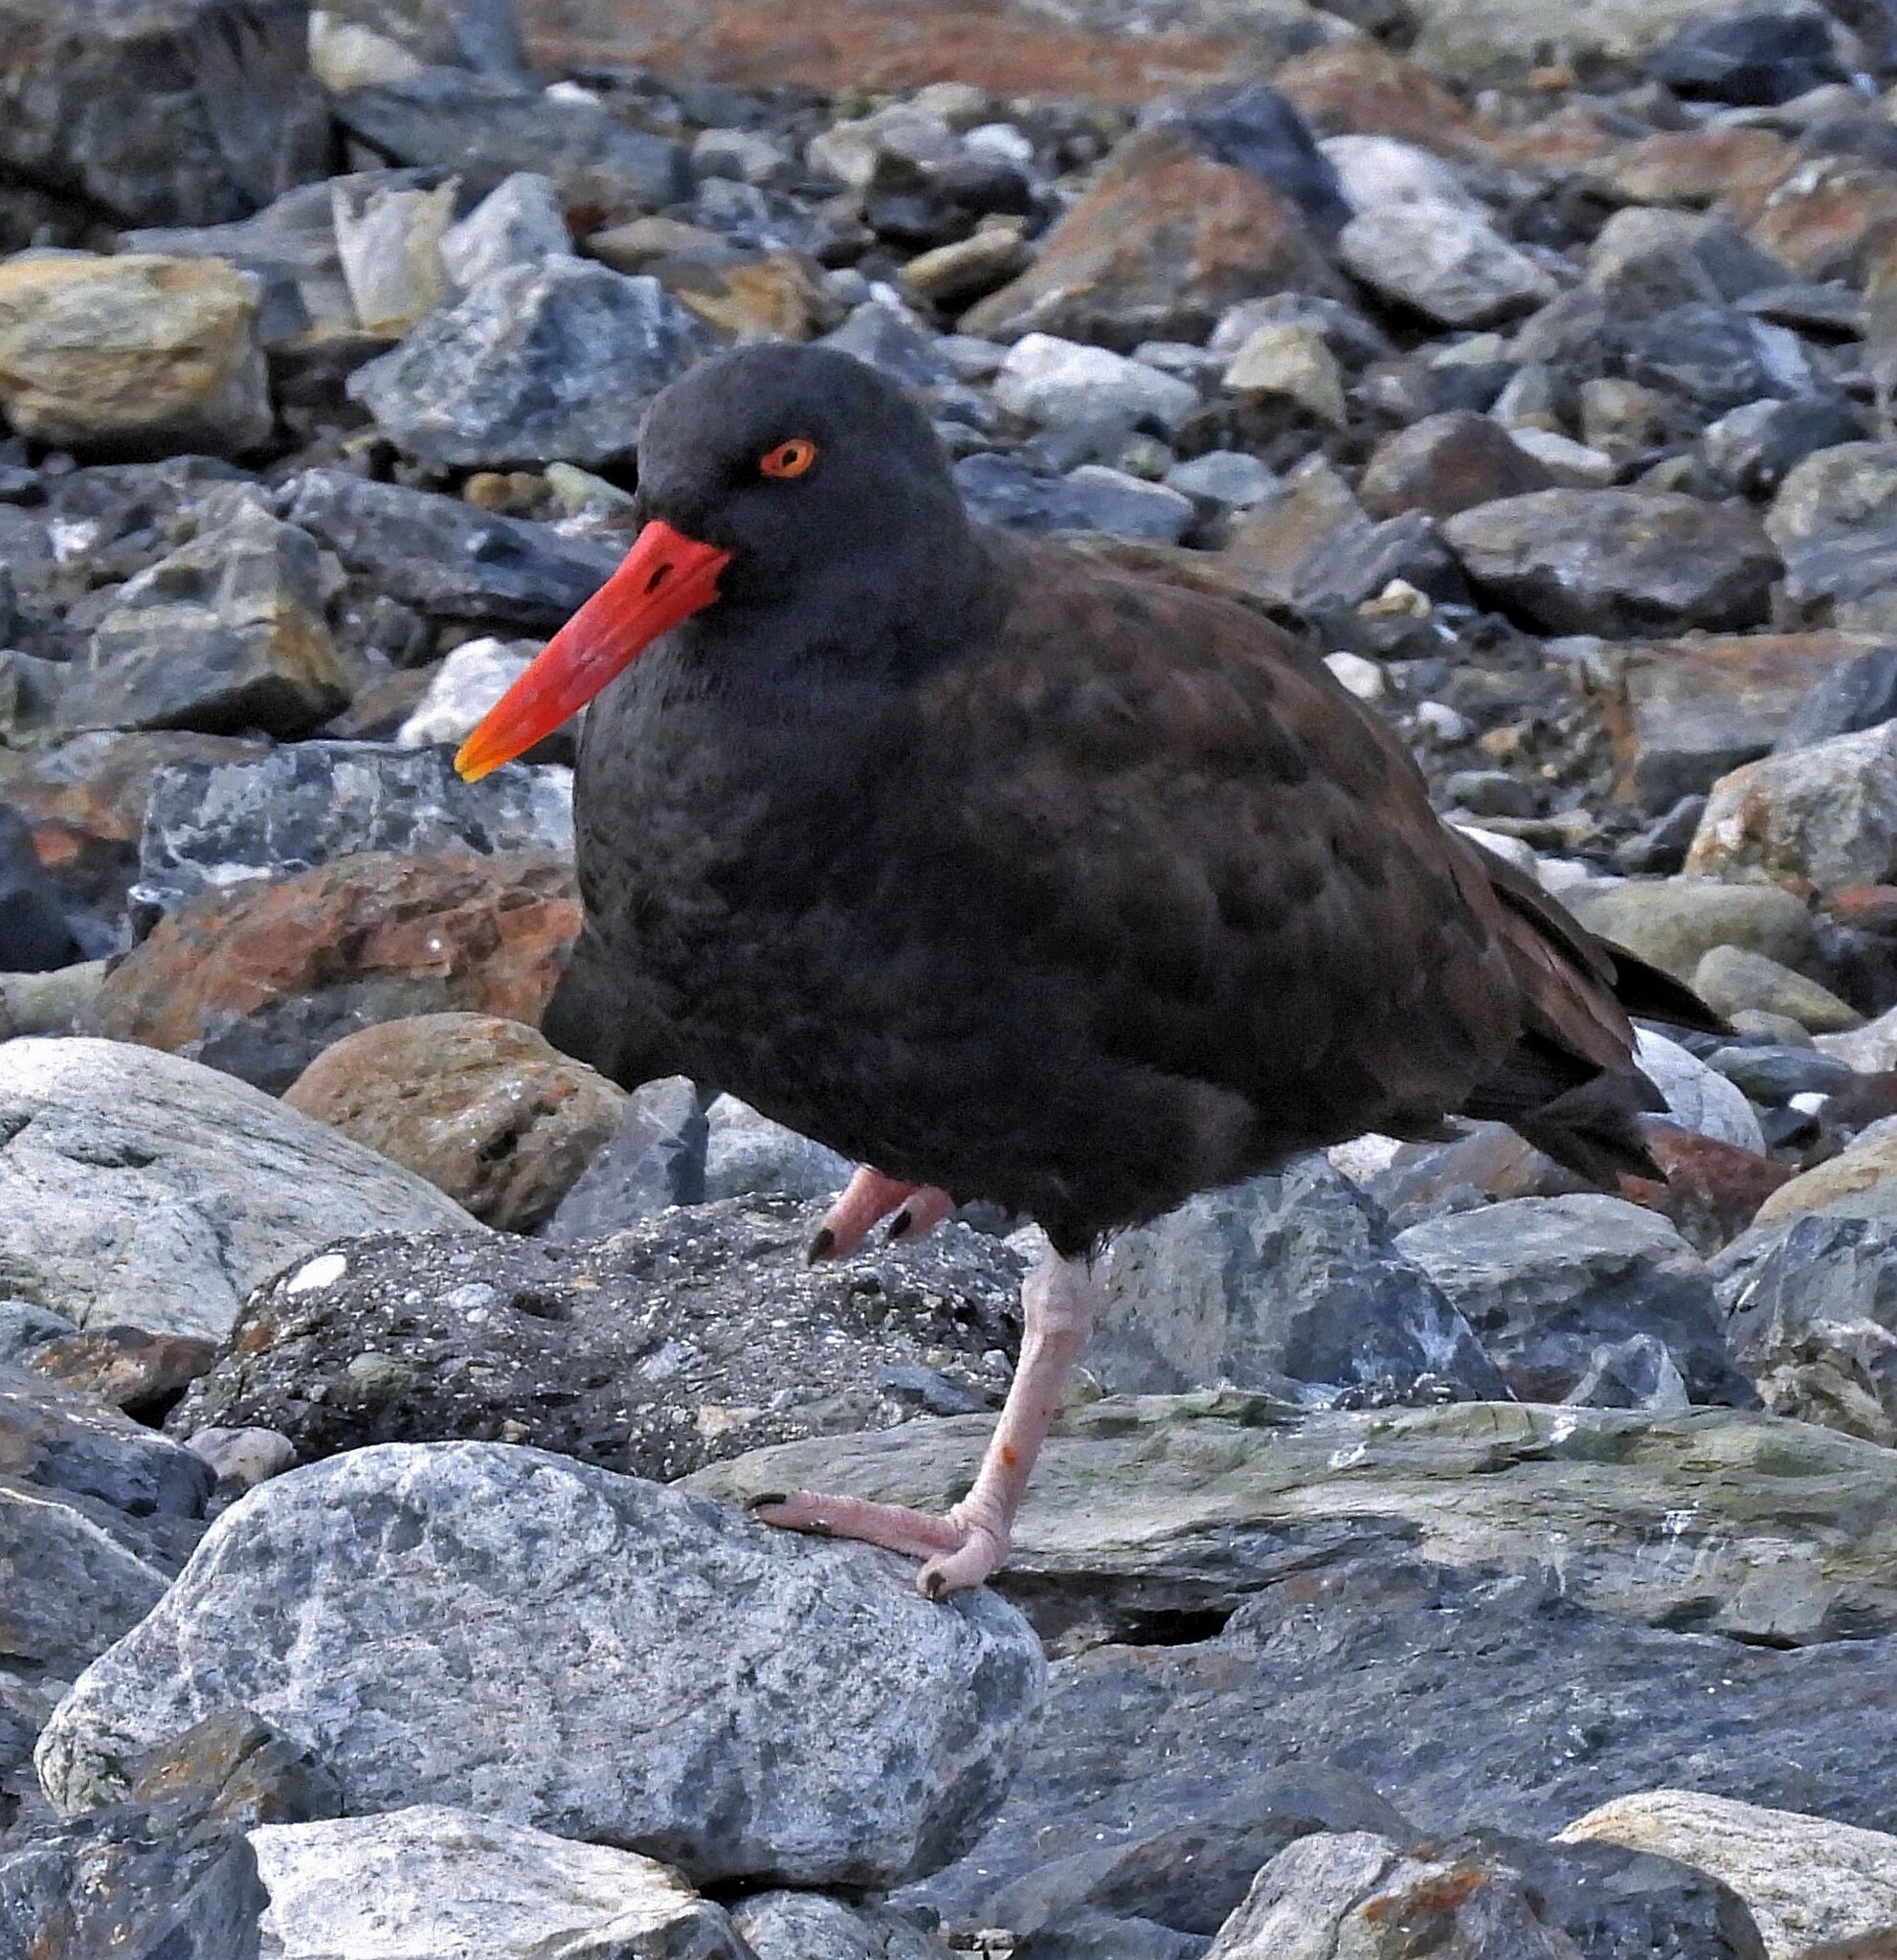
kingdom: Animalia
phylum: Chordata
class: Aves
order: Charadriiformes
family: Haematopodidae
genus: Haematopus
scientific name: Haematopus ater
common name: Blackish oystercatcher
